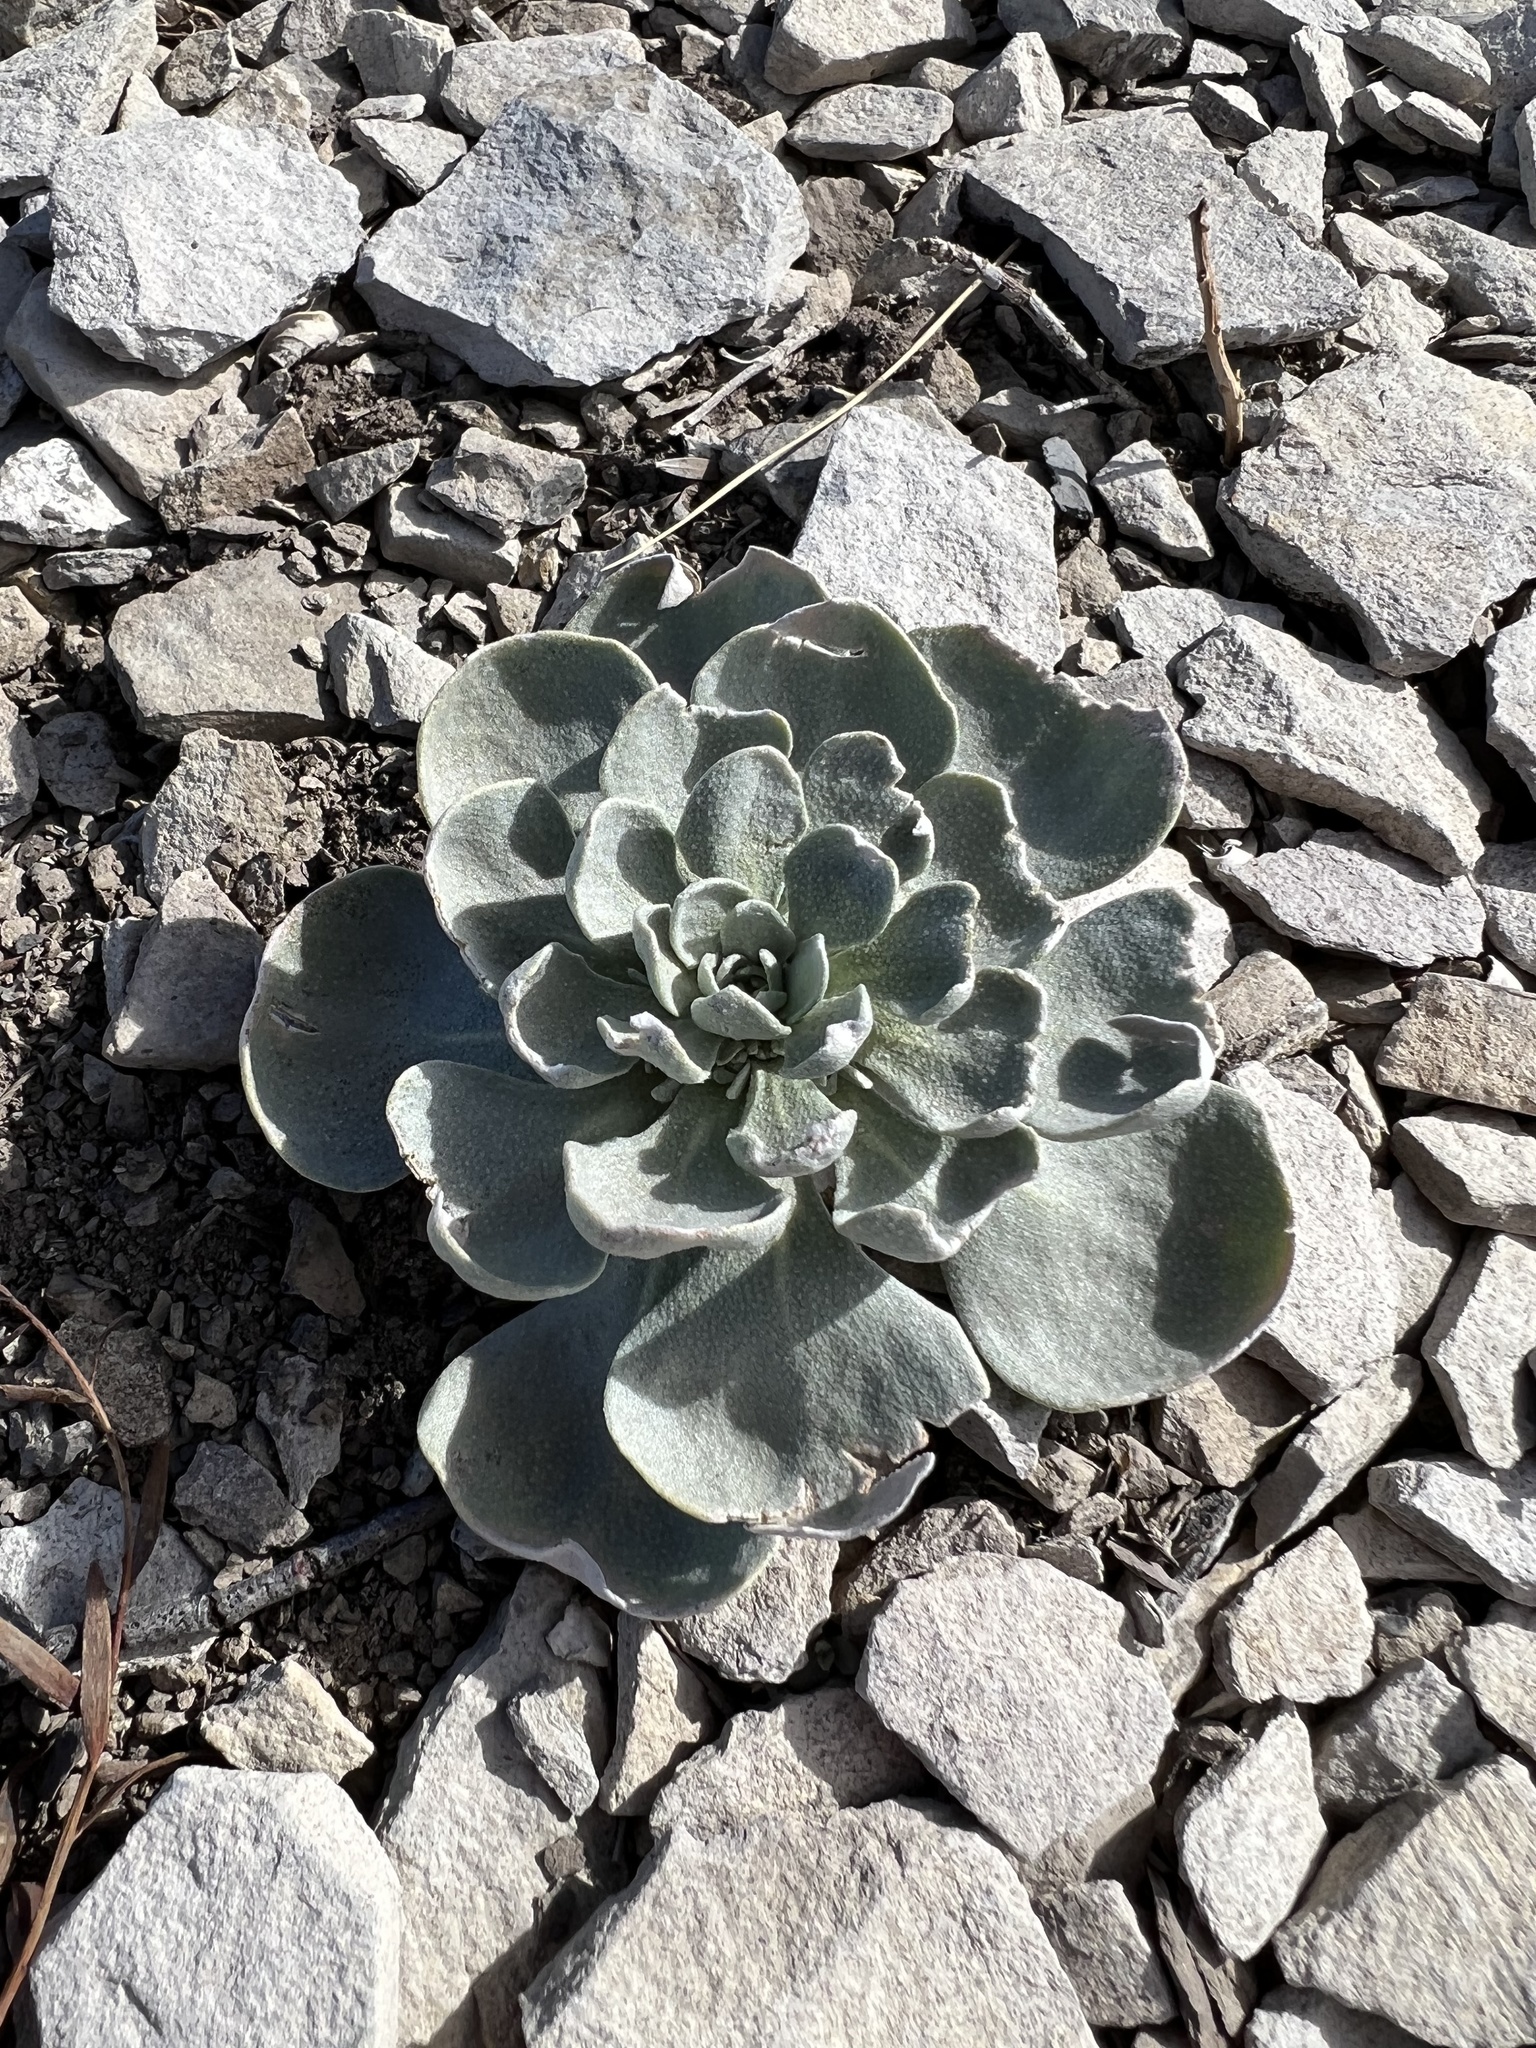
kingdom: Plantae
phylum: Tracheophyta
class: Magnoliopsida
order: Brassicales
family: Brassicaceae
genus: Physaria
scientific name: Physaria bellii
